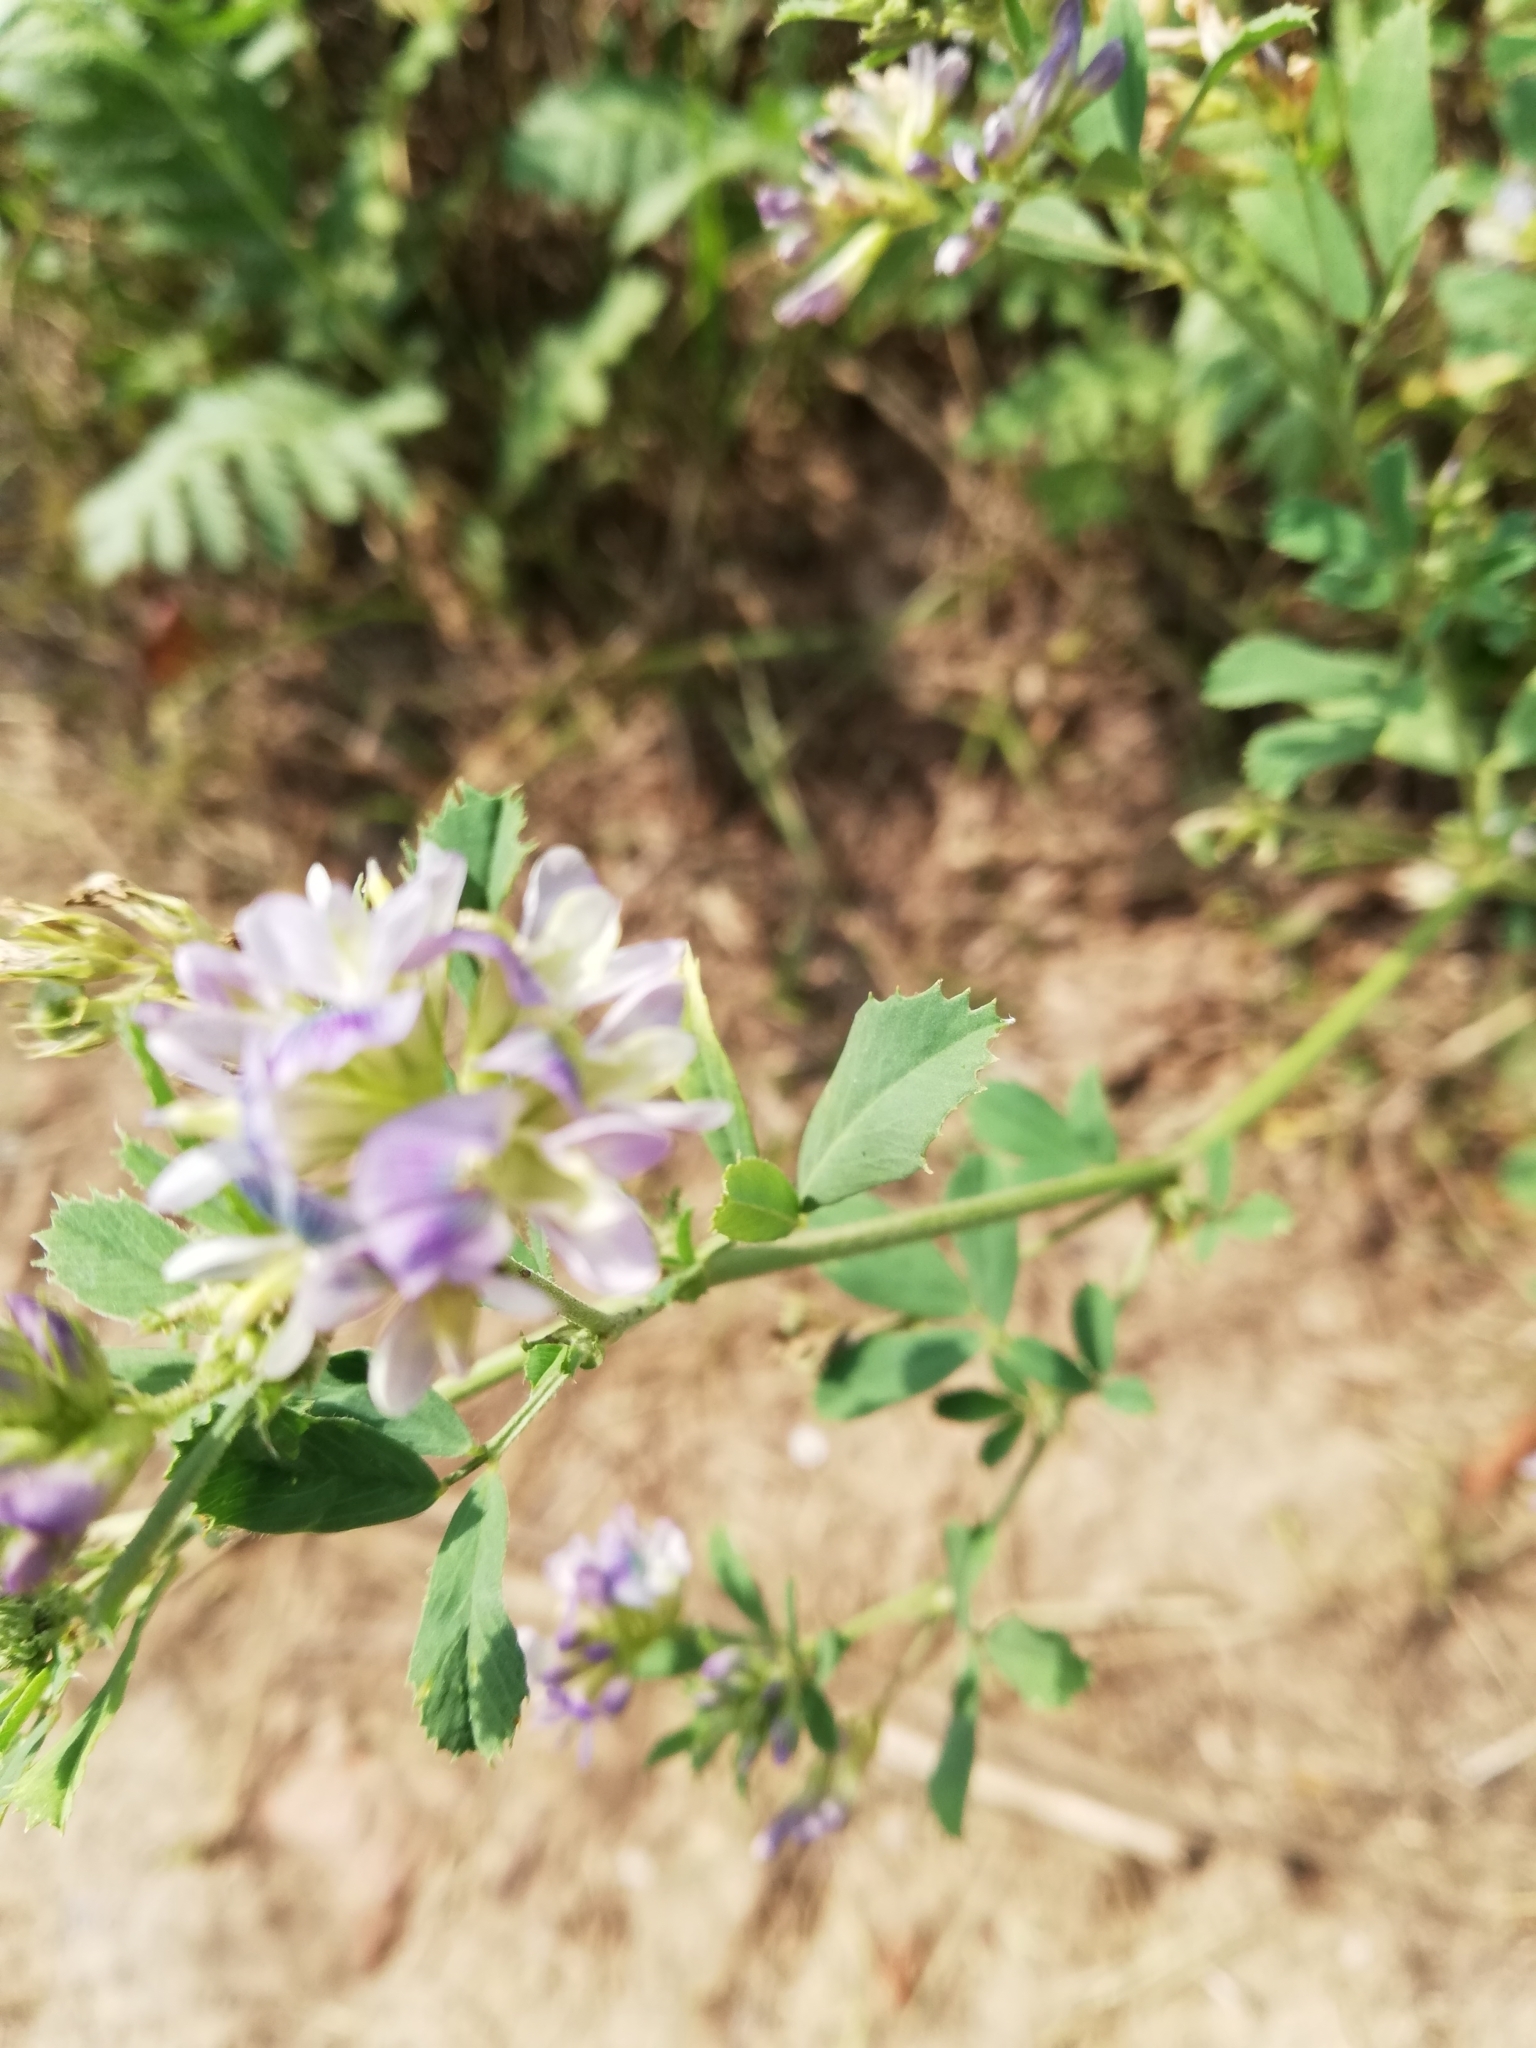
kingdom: Plantae
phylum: Tracheophyta
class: Magnoliopsida
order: Fabales
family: Fabaceae
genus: Medicago
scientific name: Medicago varia
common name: Sand lucerne
